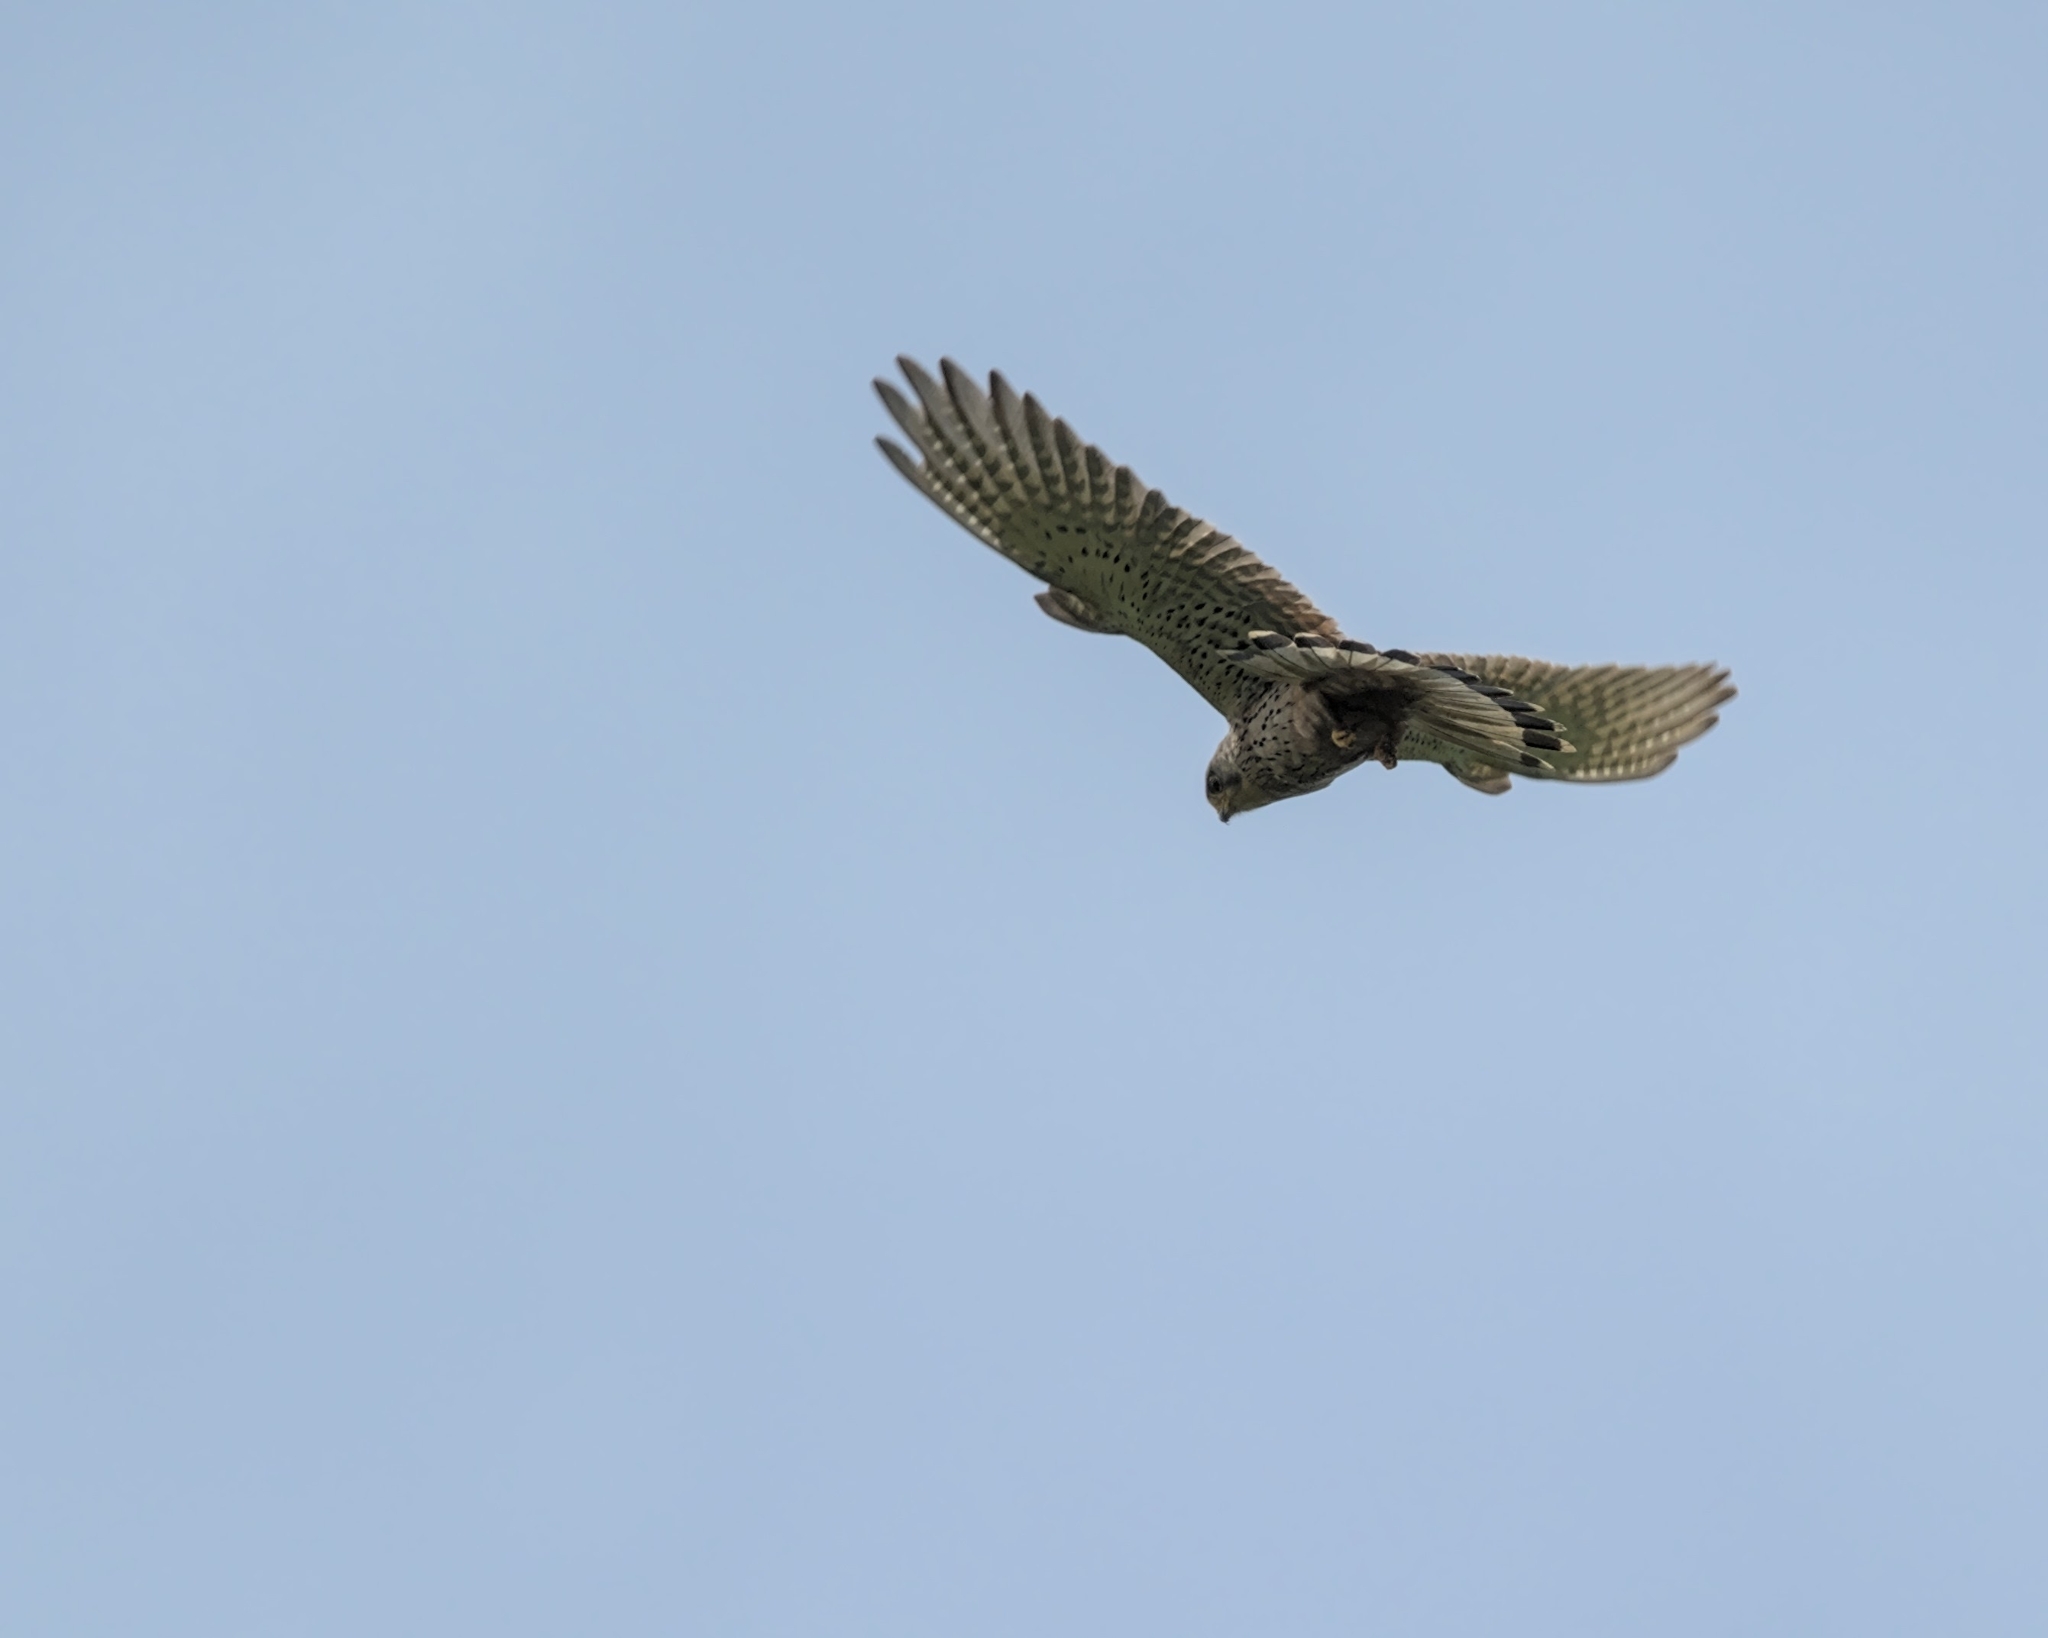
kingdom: Animalia
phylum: Chordata
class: Aves
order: Falconiformes
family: Falconidae
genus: Falco
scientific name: Falco tinnunculus
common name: Common kestrel
